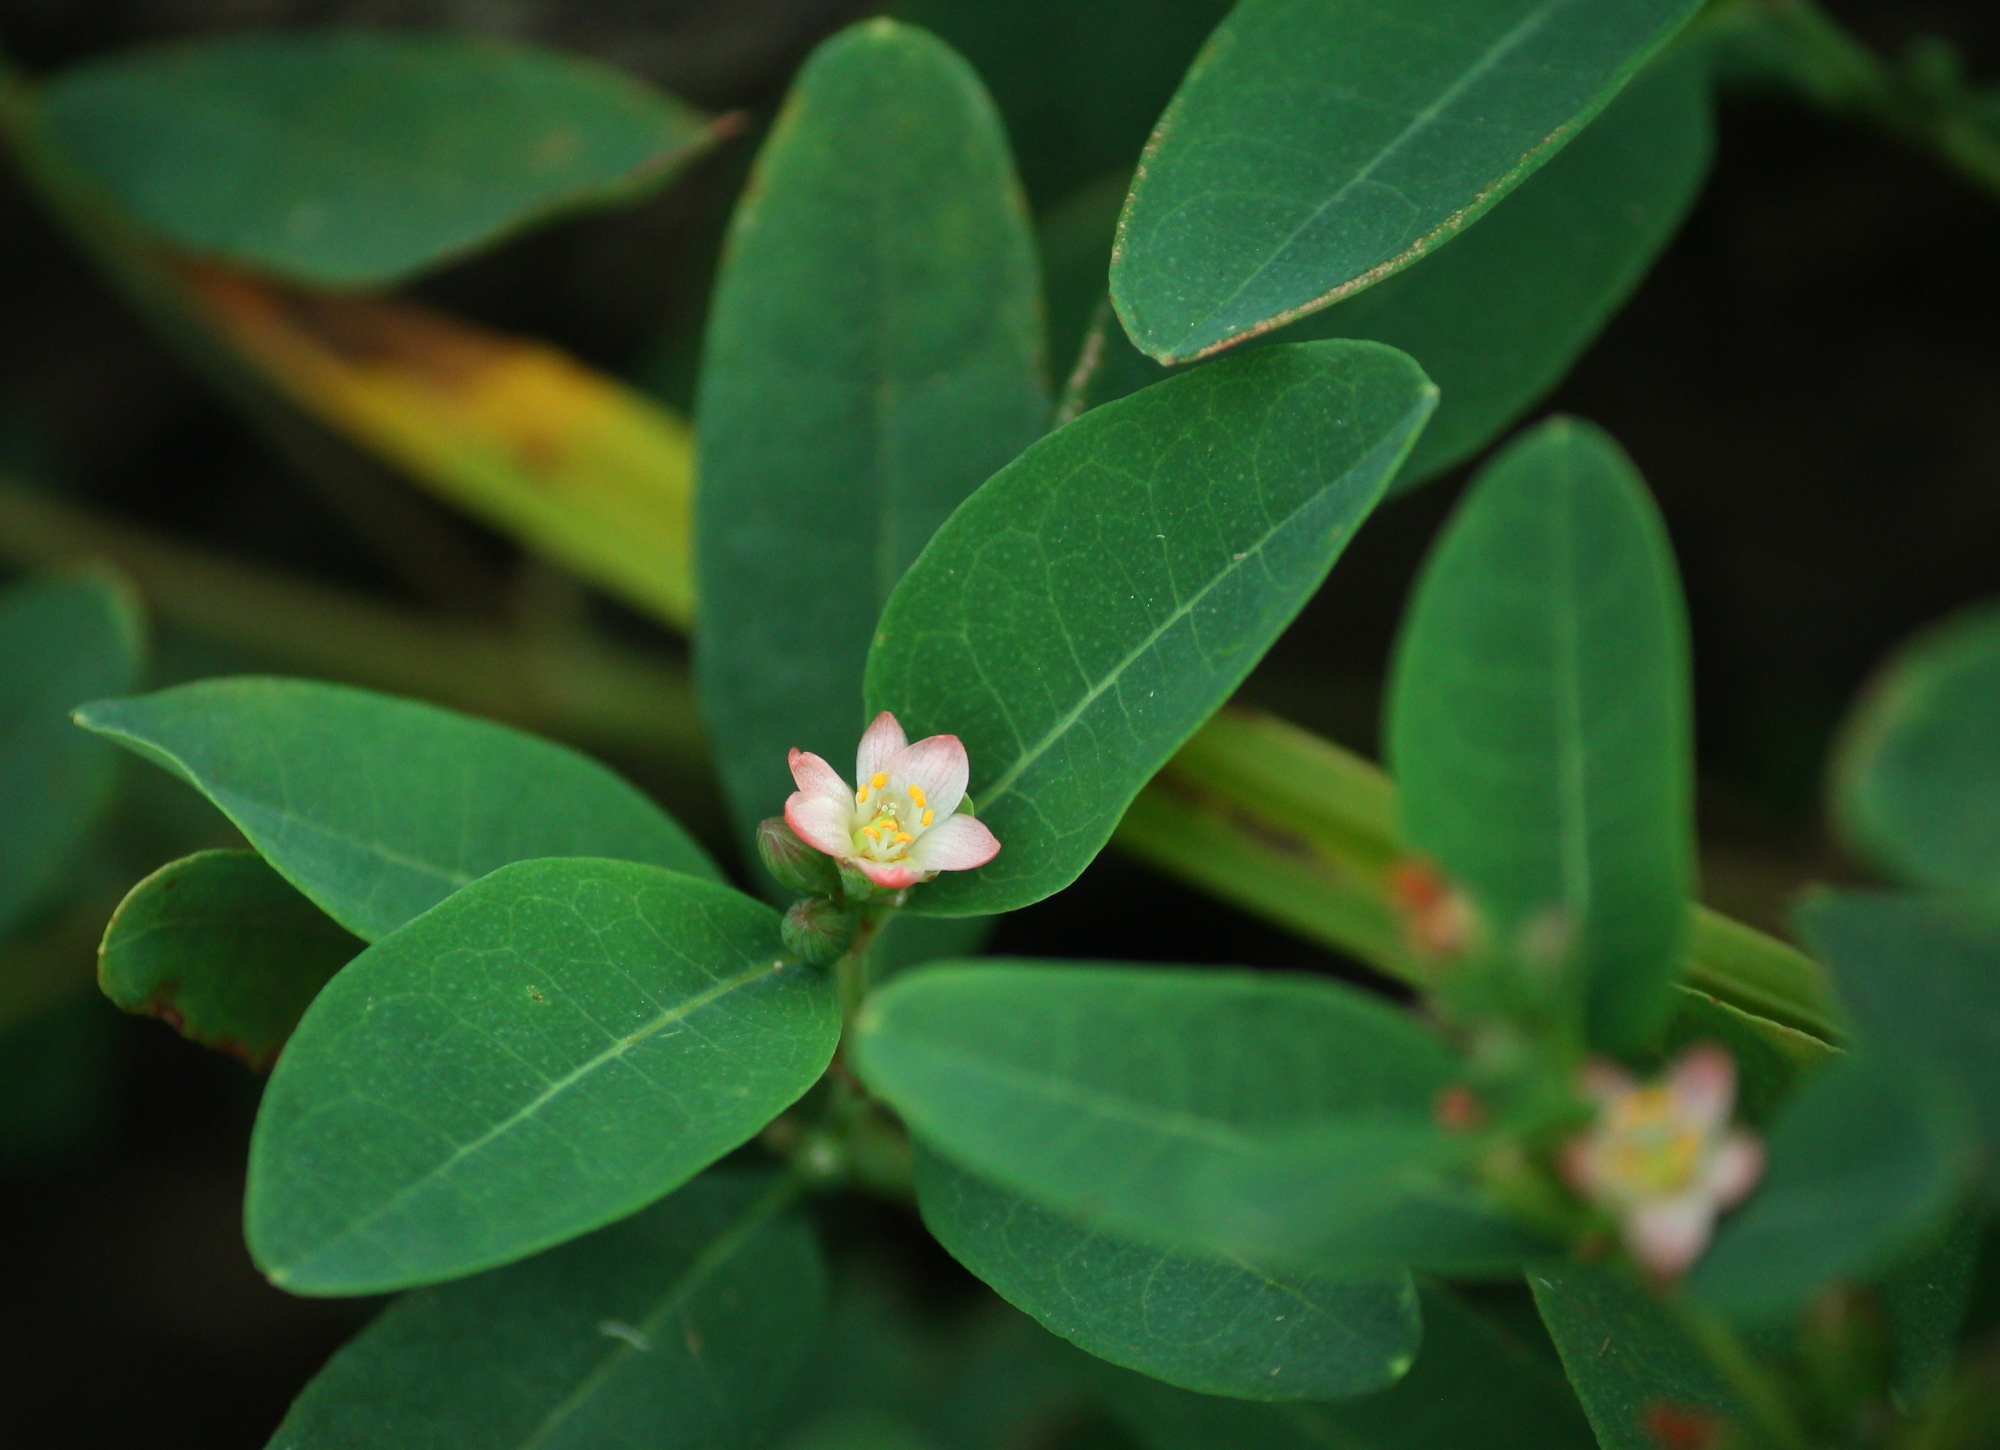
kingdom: Plantae
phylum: Tracheophyta
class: Magnoliopsida
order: Malpighiales
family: Hypericaceae
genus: Triadenum
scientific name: Triadenum walteri
